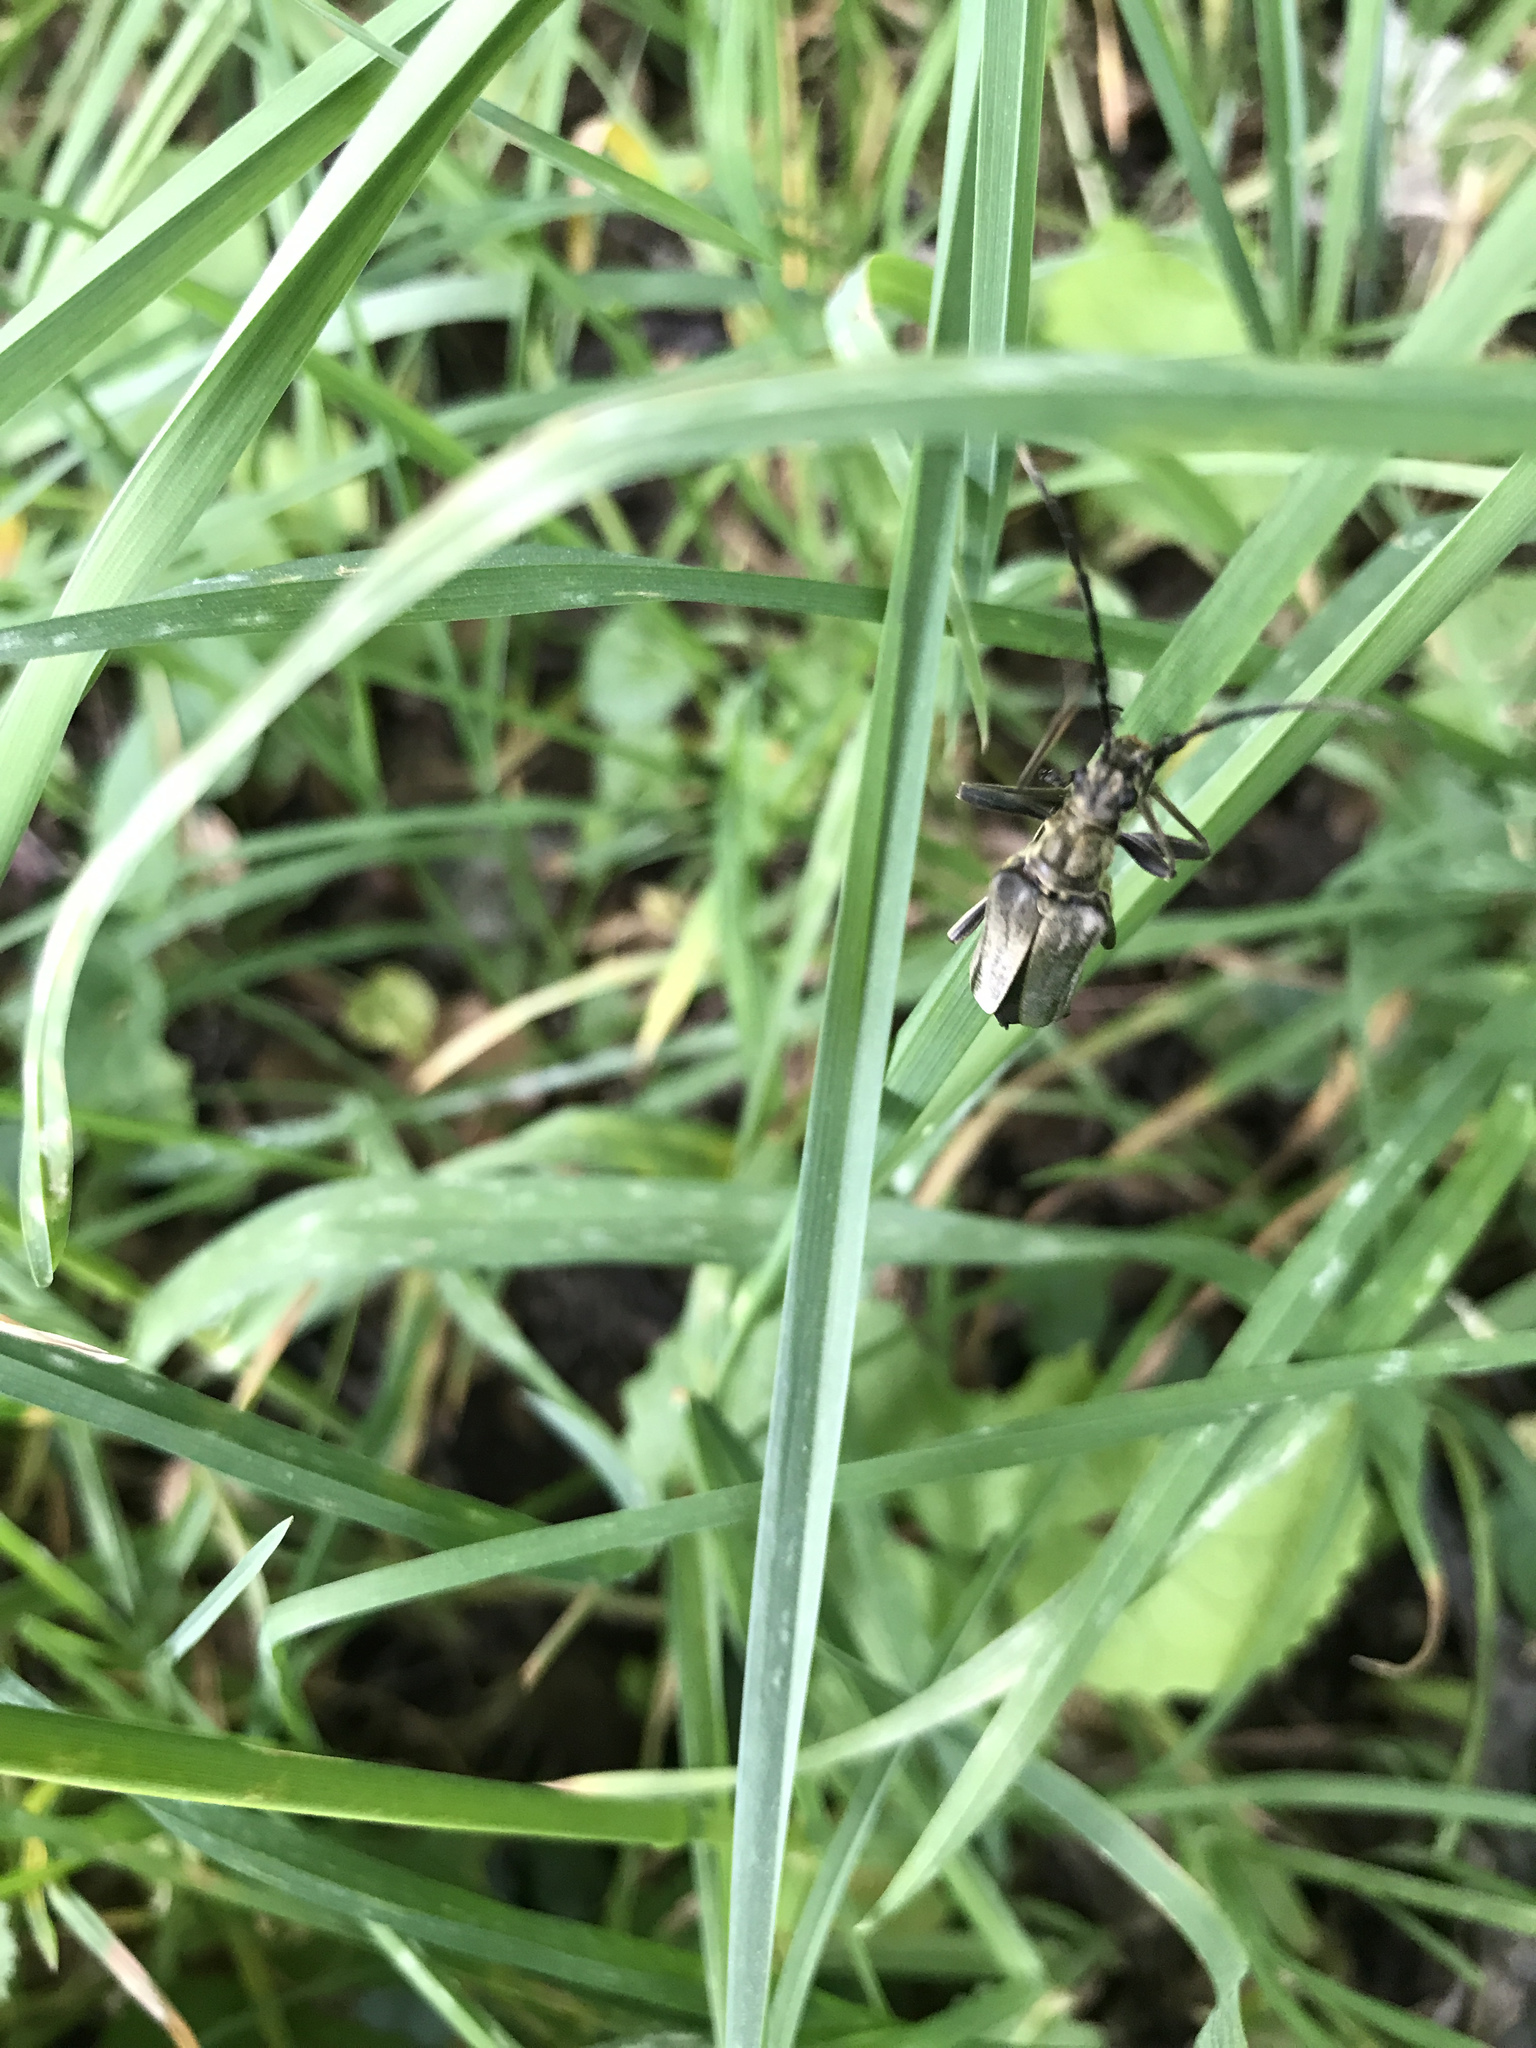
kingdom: Animalia
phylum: Arthropoda
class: Insecta
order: Coleoptera
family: Cerambycidae
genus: Stenocorus
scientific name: Stenocorus meridianus
